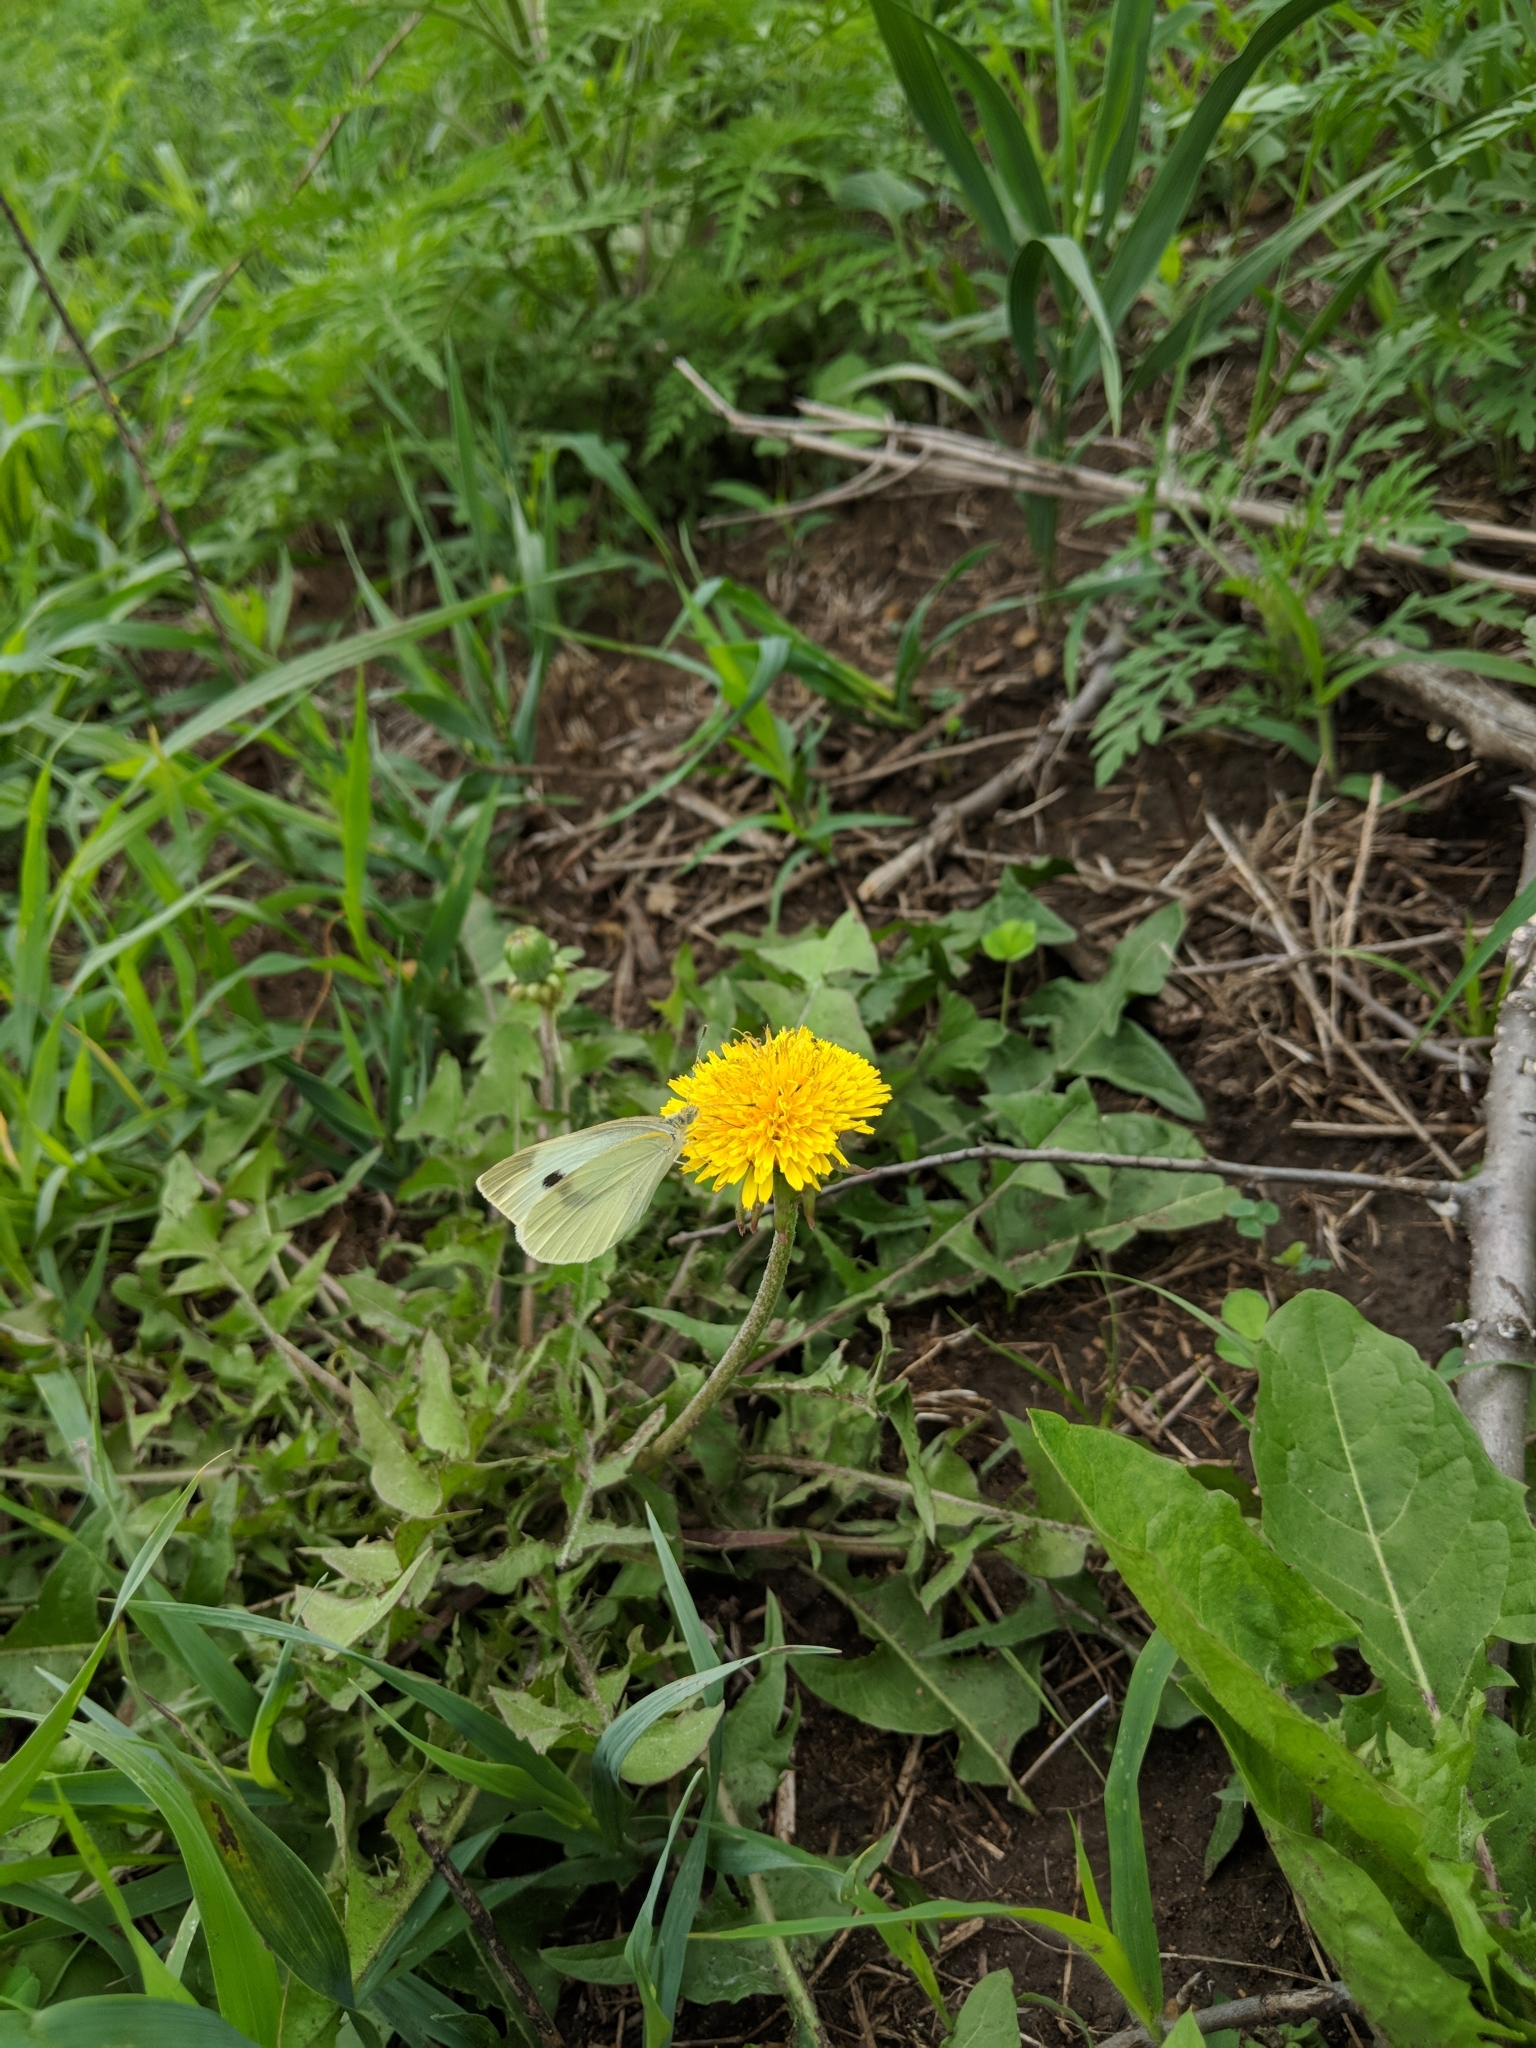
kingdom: Animalia
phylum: Arthropoda
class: Insecta
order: Lepidoptera
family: Pieridae
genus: Pieris
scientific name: Pieris rapae
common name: Small white
